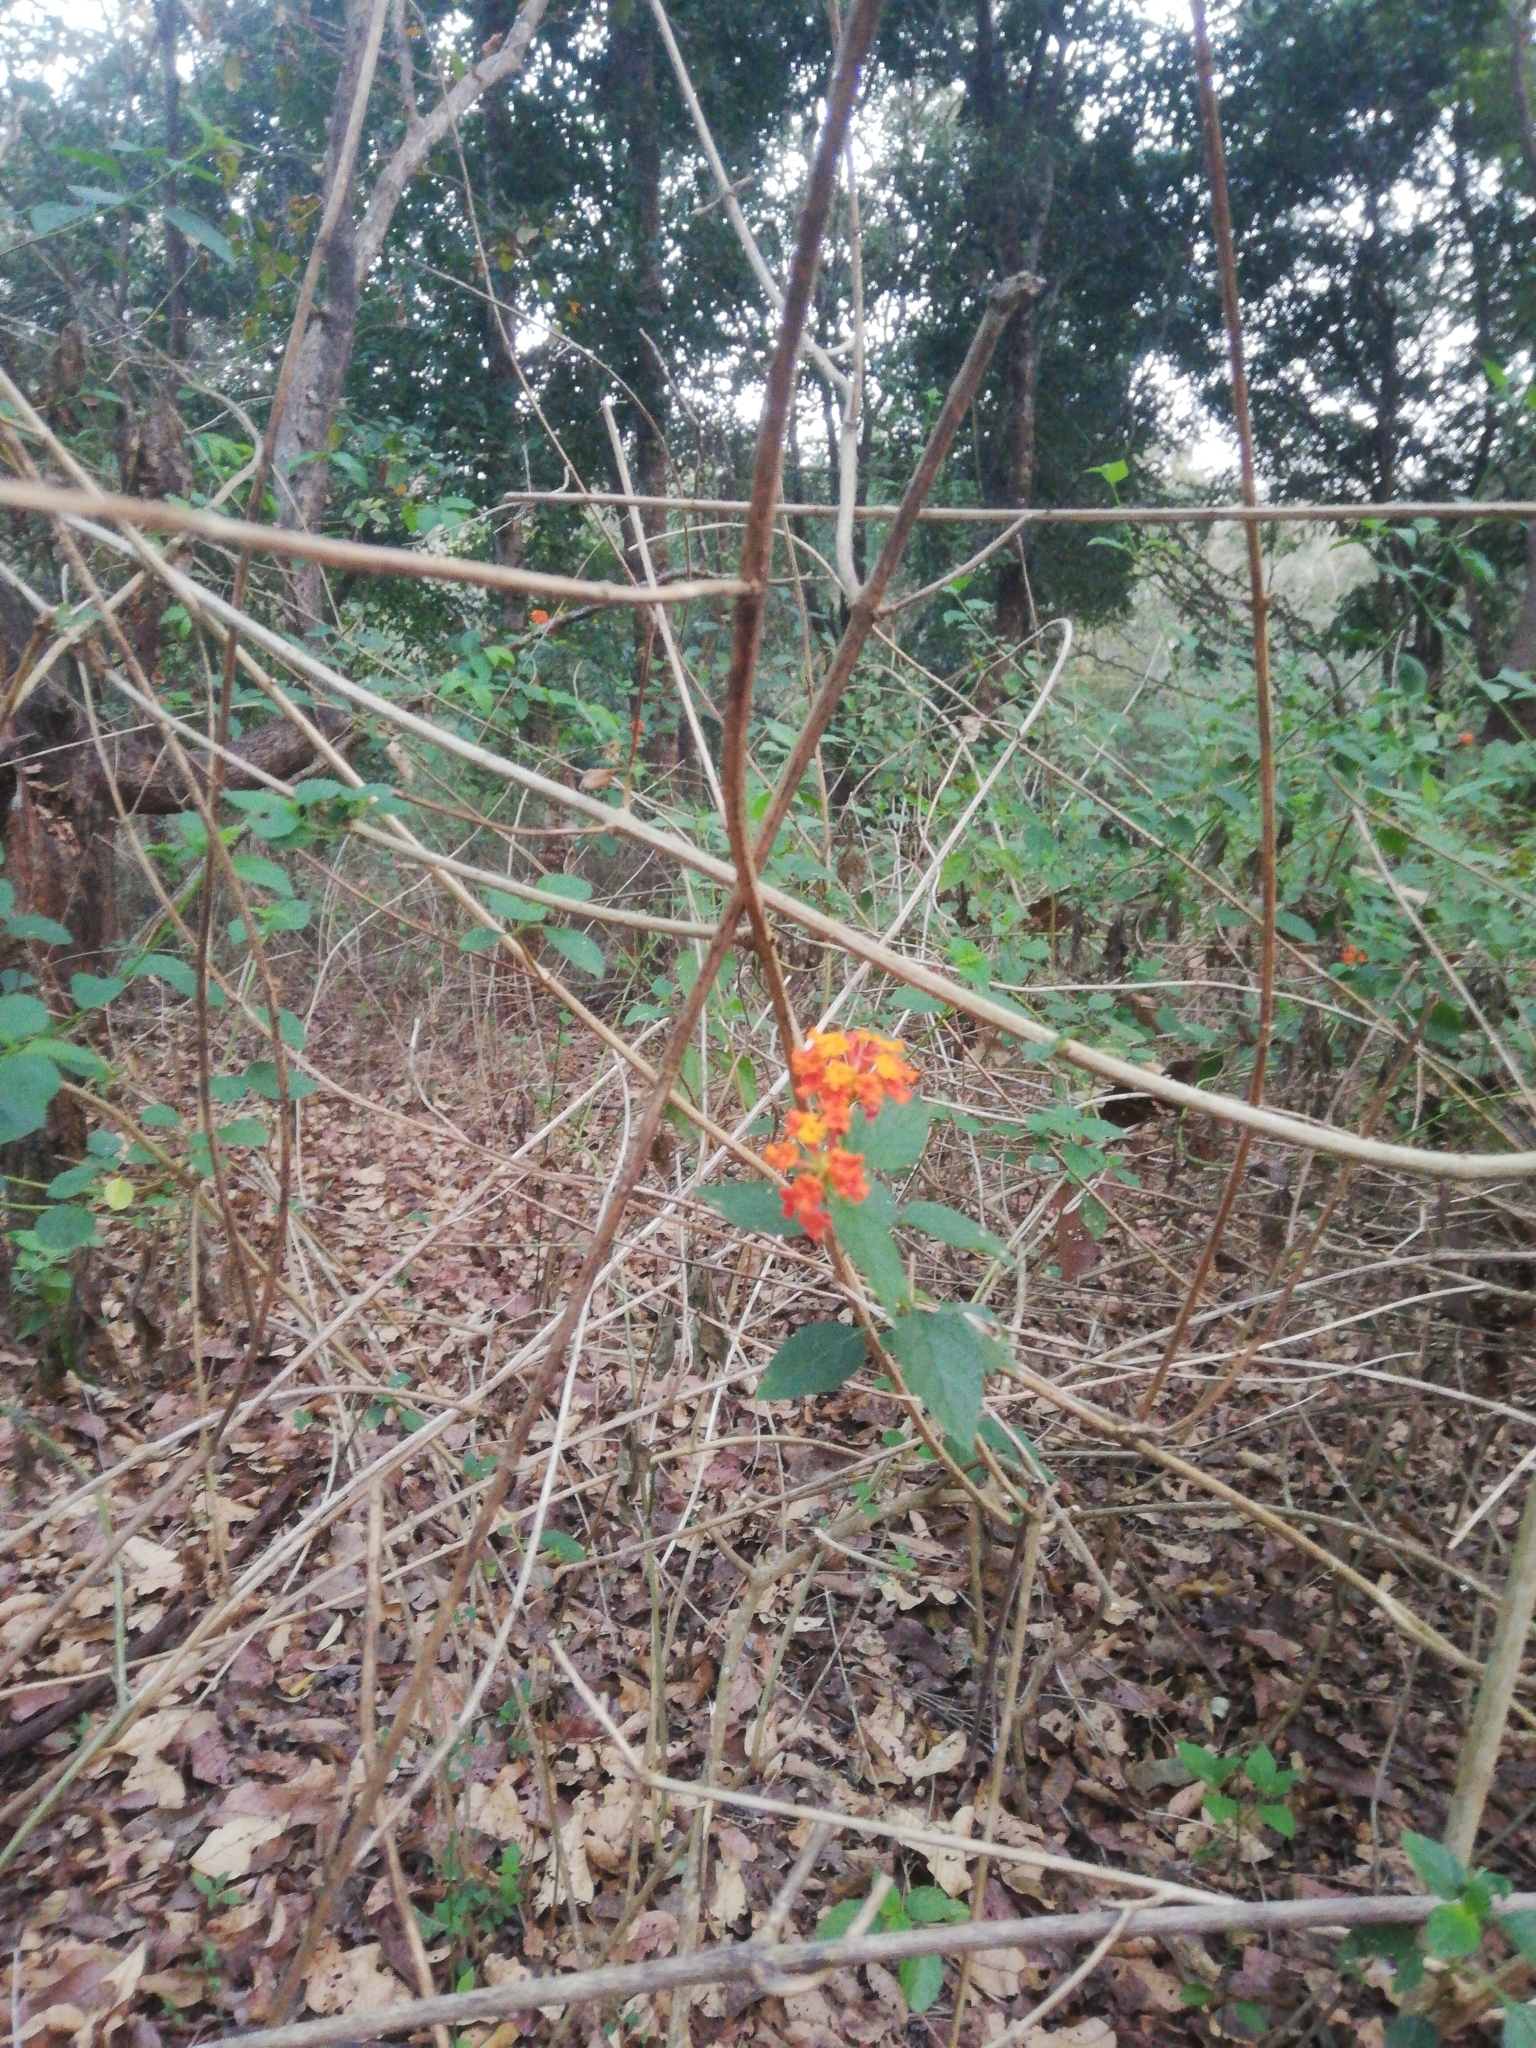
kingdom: Plantae
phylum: Tracheophyta
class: Magnoliopsida
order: Lamiales
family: Verbenaceae
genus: Lantana
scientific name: Lantana camara
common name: Lantana
